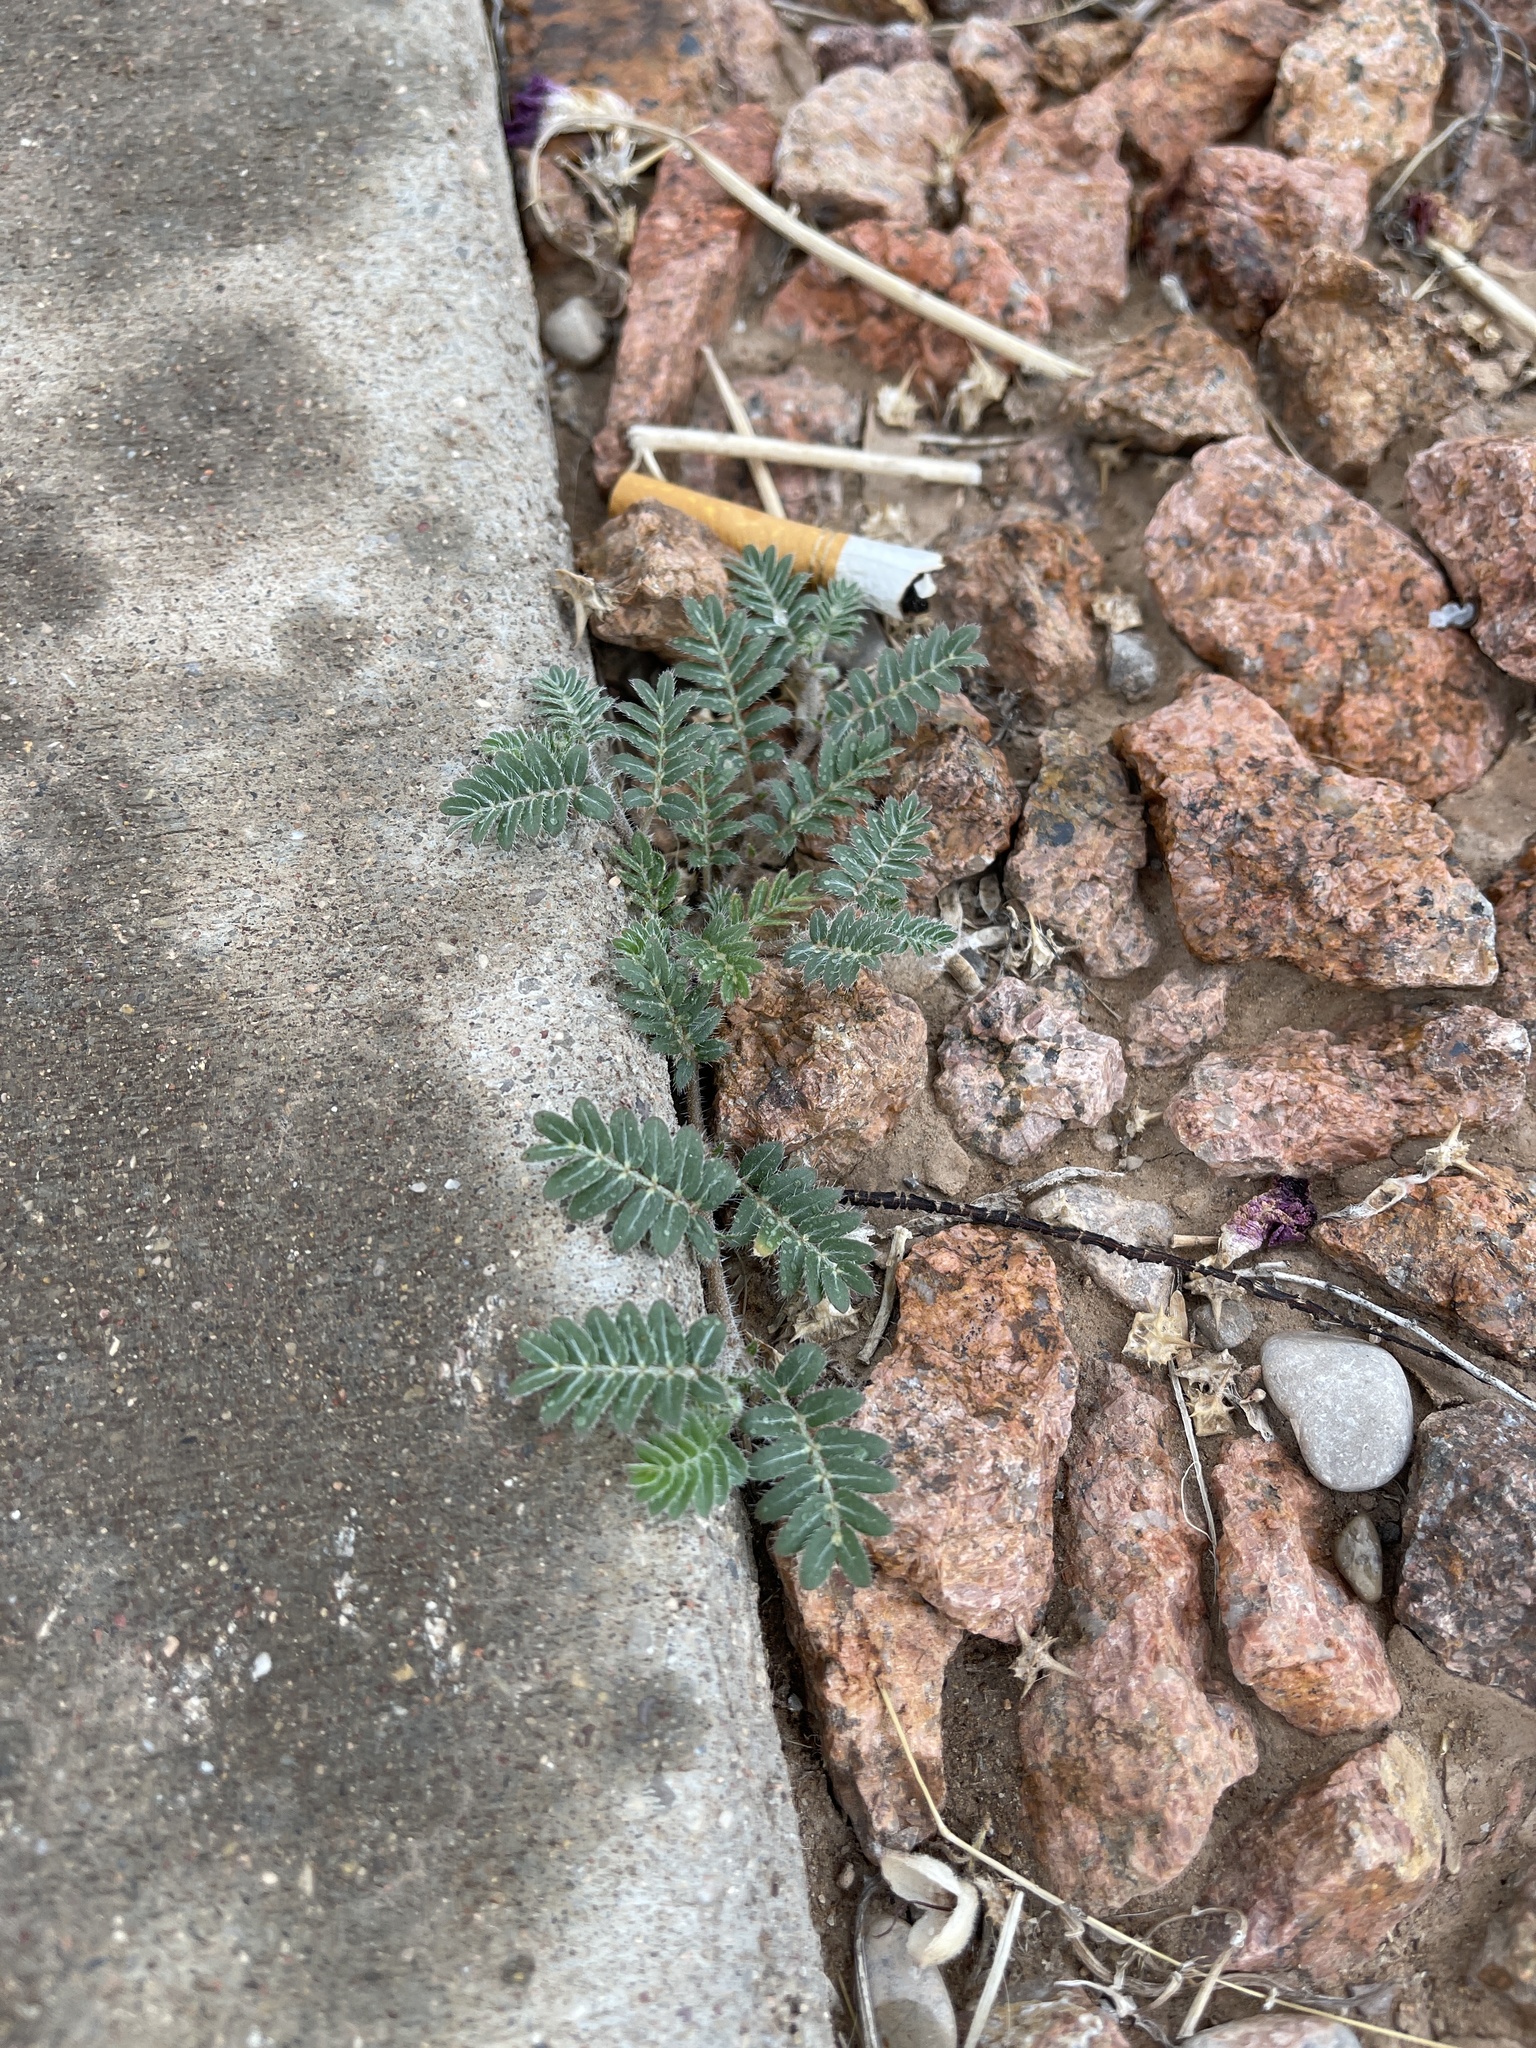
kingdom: Plantae
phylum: Tracheophyta
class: Magnoliopsida
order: Zygophyllales
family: Zygophyllaceae
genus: Tribulus
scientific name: Tribulus terrestris
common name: Puncturevine
